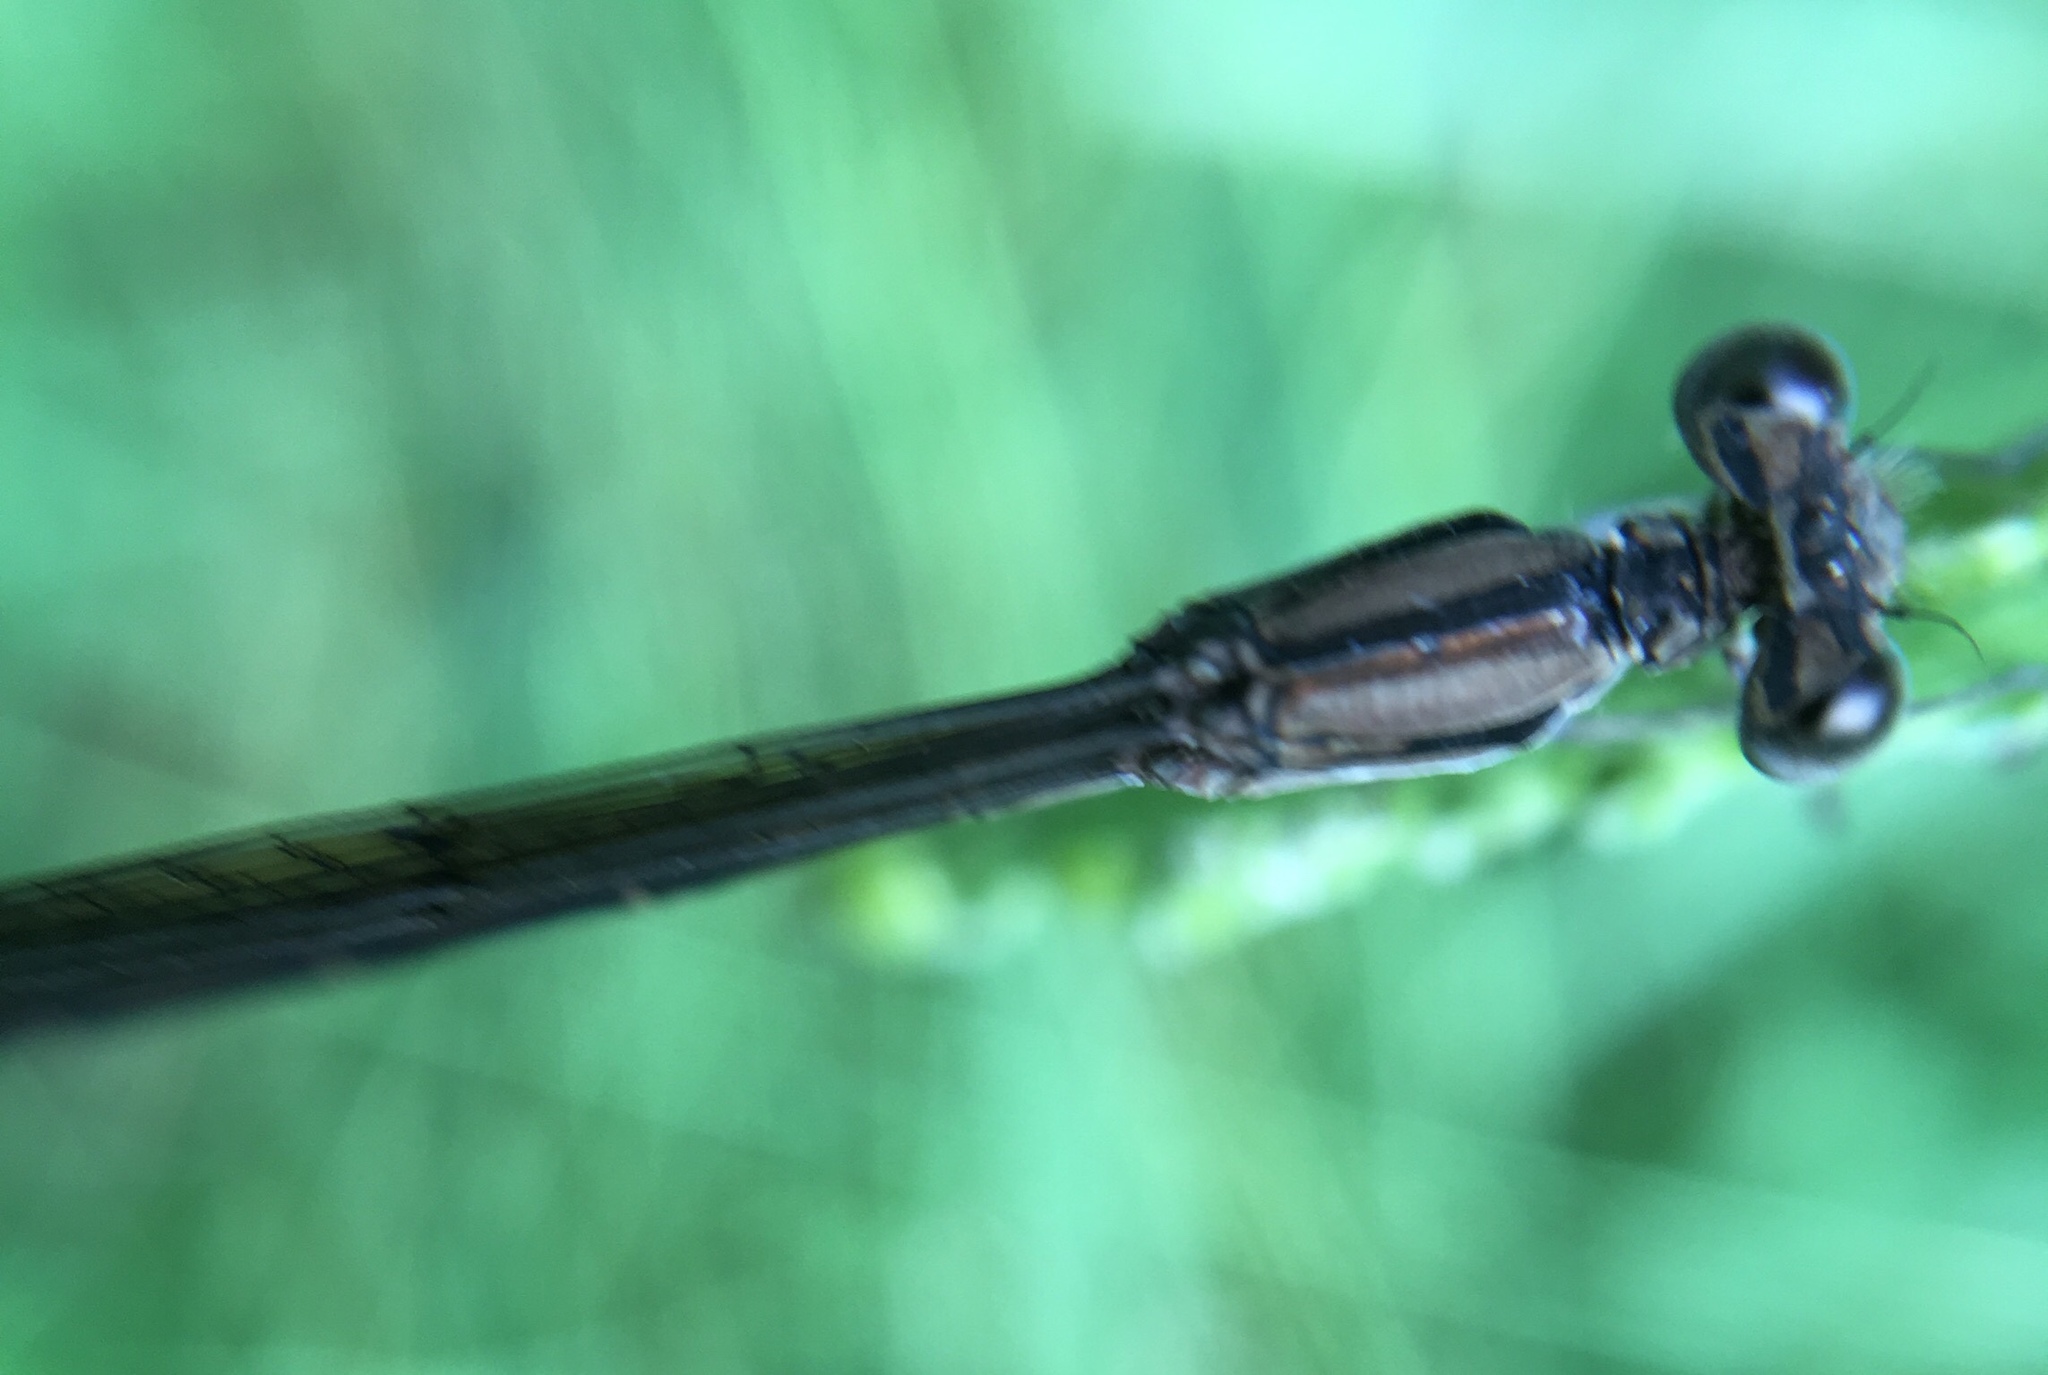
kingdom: Animalia
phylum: Arthropoda
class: Insecta
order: Odonata
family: Coenagrionidae
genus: Argia
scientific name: Argia fumipennis
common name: Variable dancer
